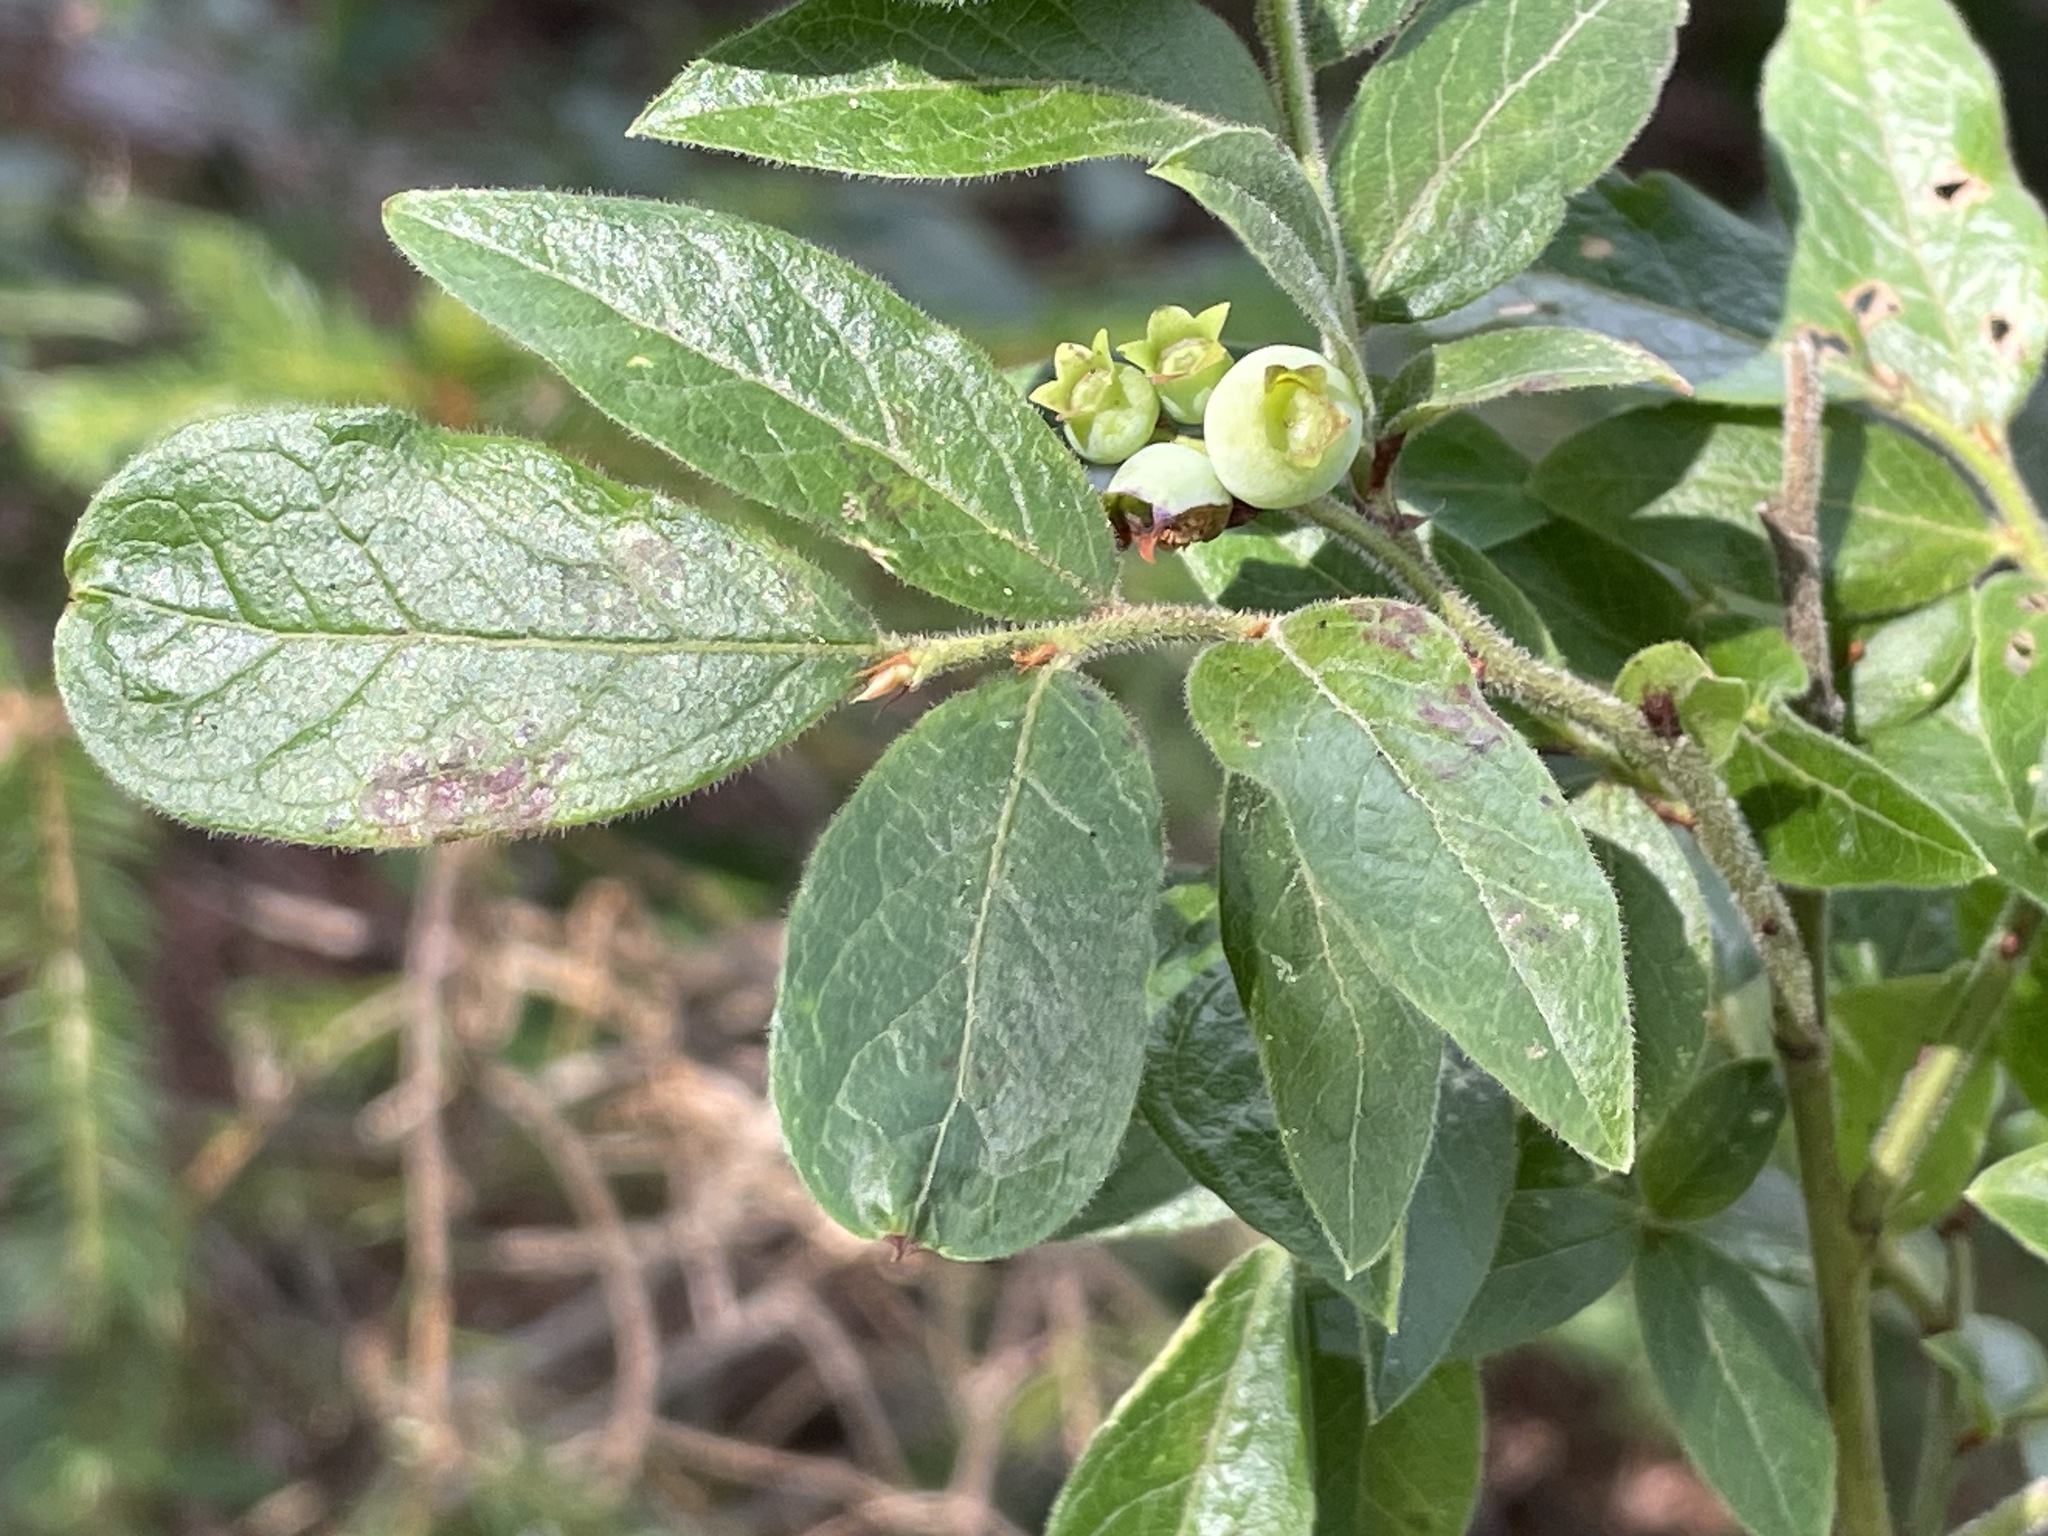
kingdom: Plantae
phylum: Tracheophyta
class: Magnoliopsida
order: Ericales
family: Ericaceae
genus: Vaccinium
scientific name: Vaccinium myrtilloides
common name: Canada blueberry
